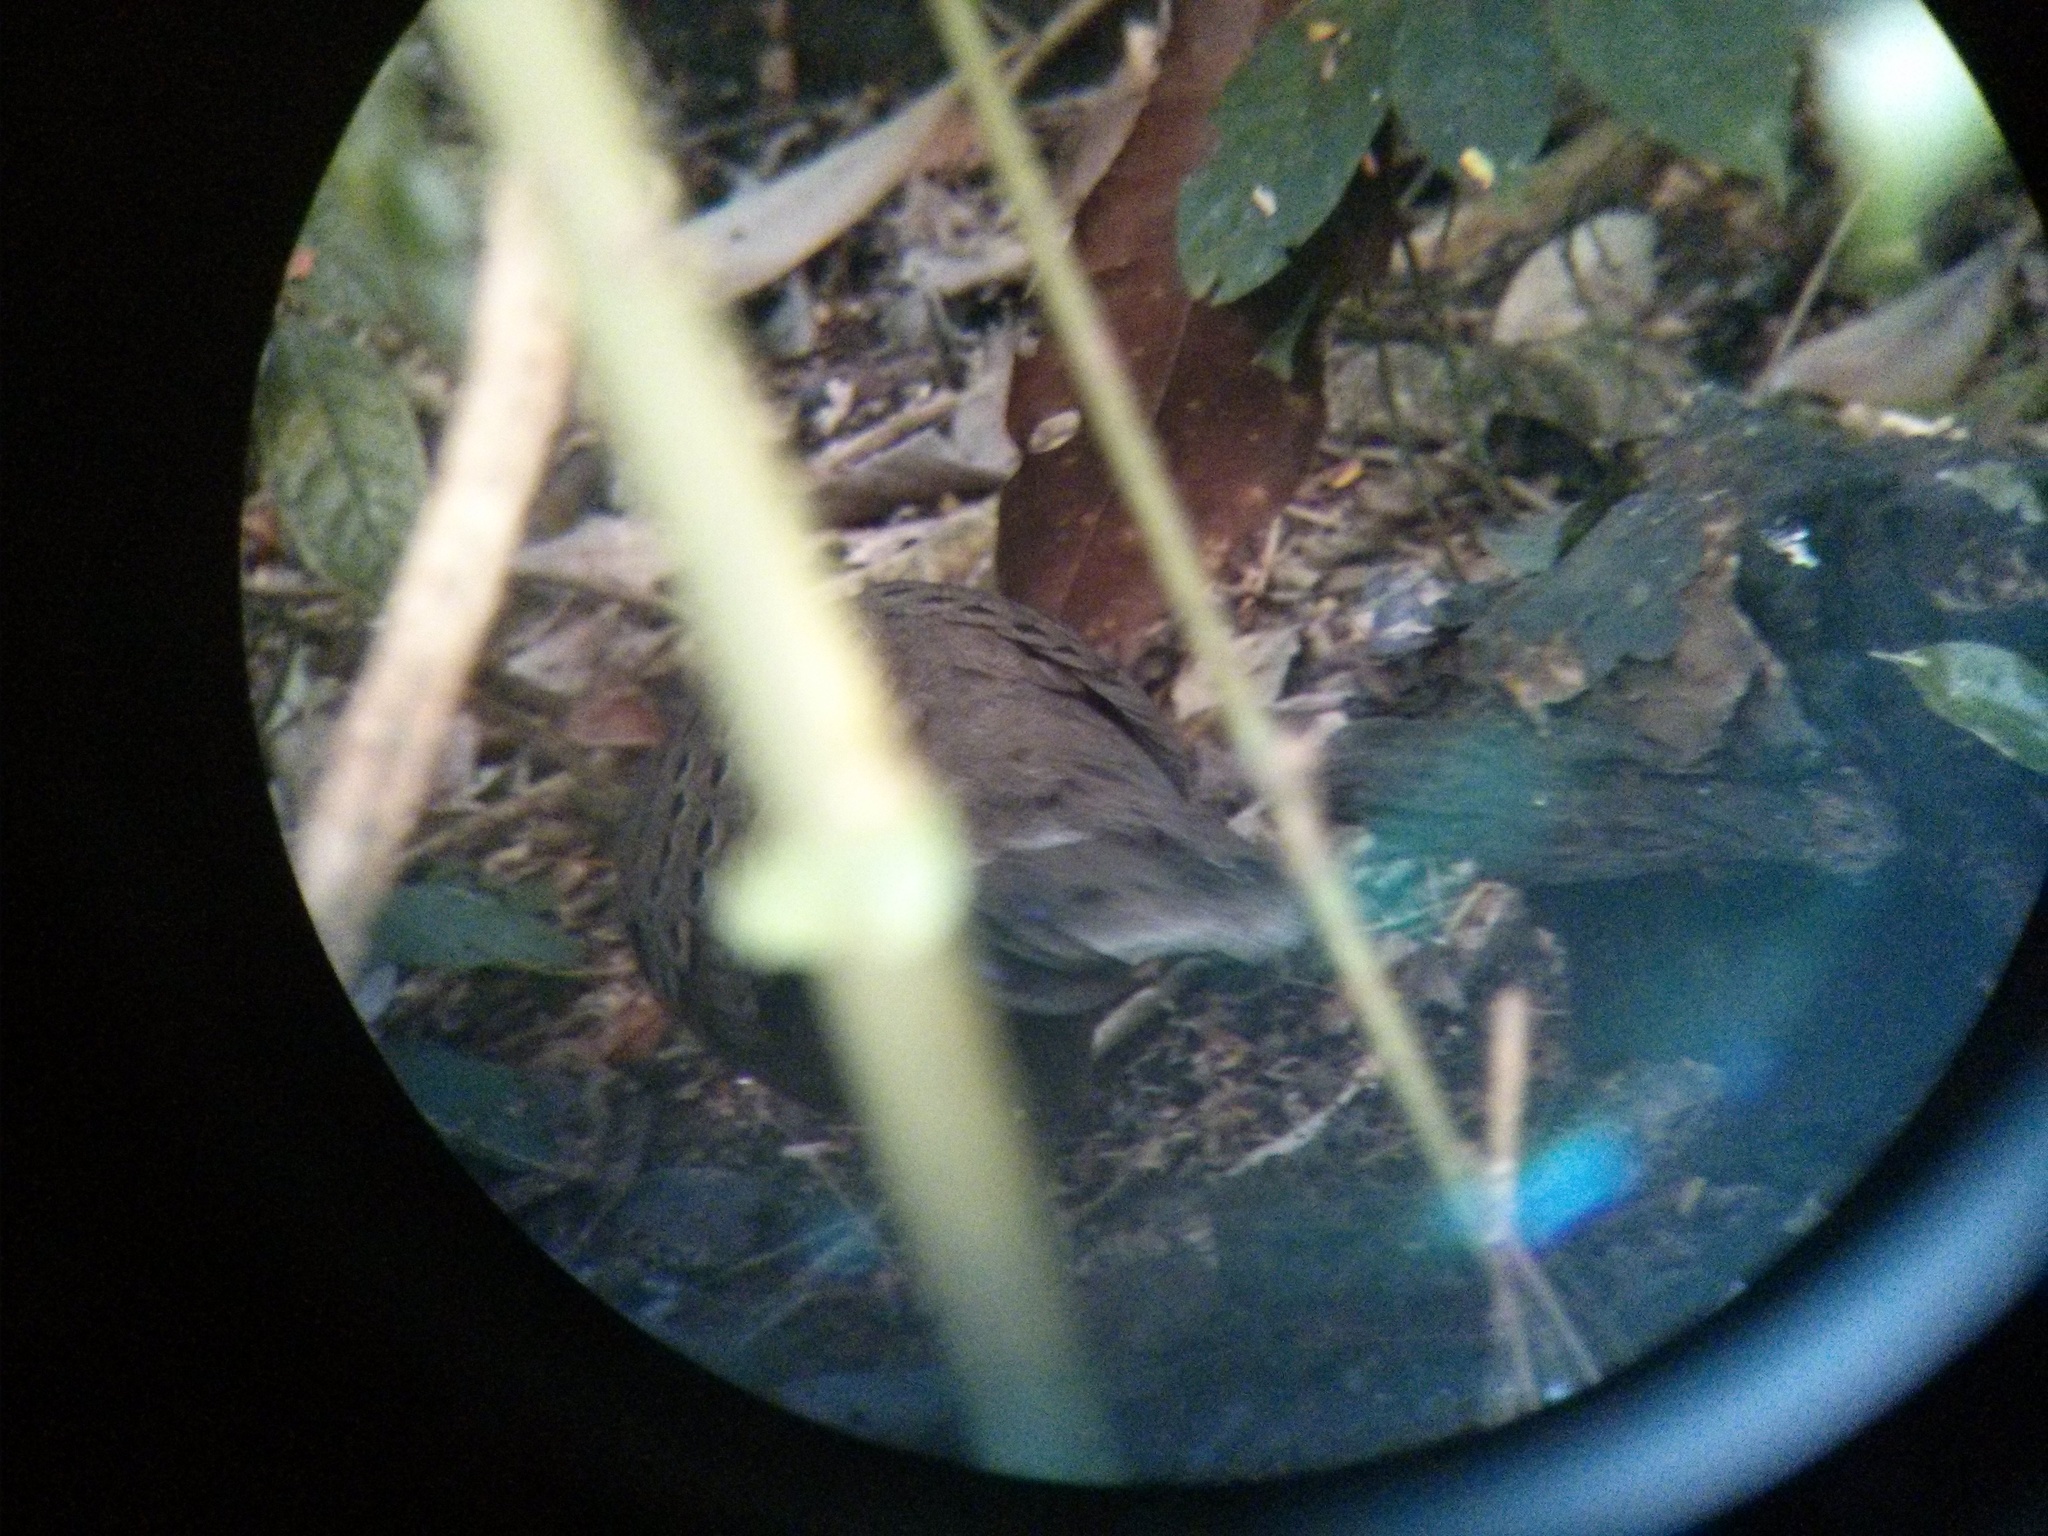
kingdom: Animalia
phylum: Chordata
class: Aves
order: Galliformes
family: Phasianidae
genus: Polyplectron
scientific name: Polyplectron germaini
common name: Germain's peacock-pheasant
